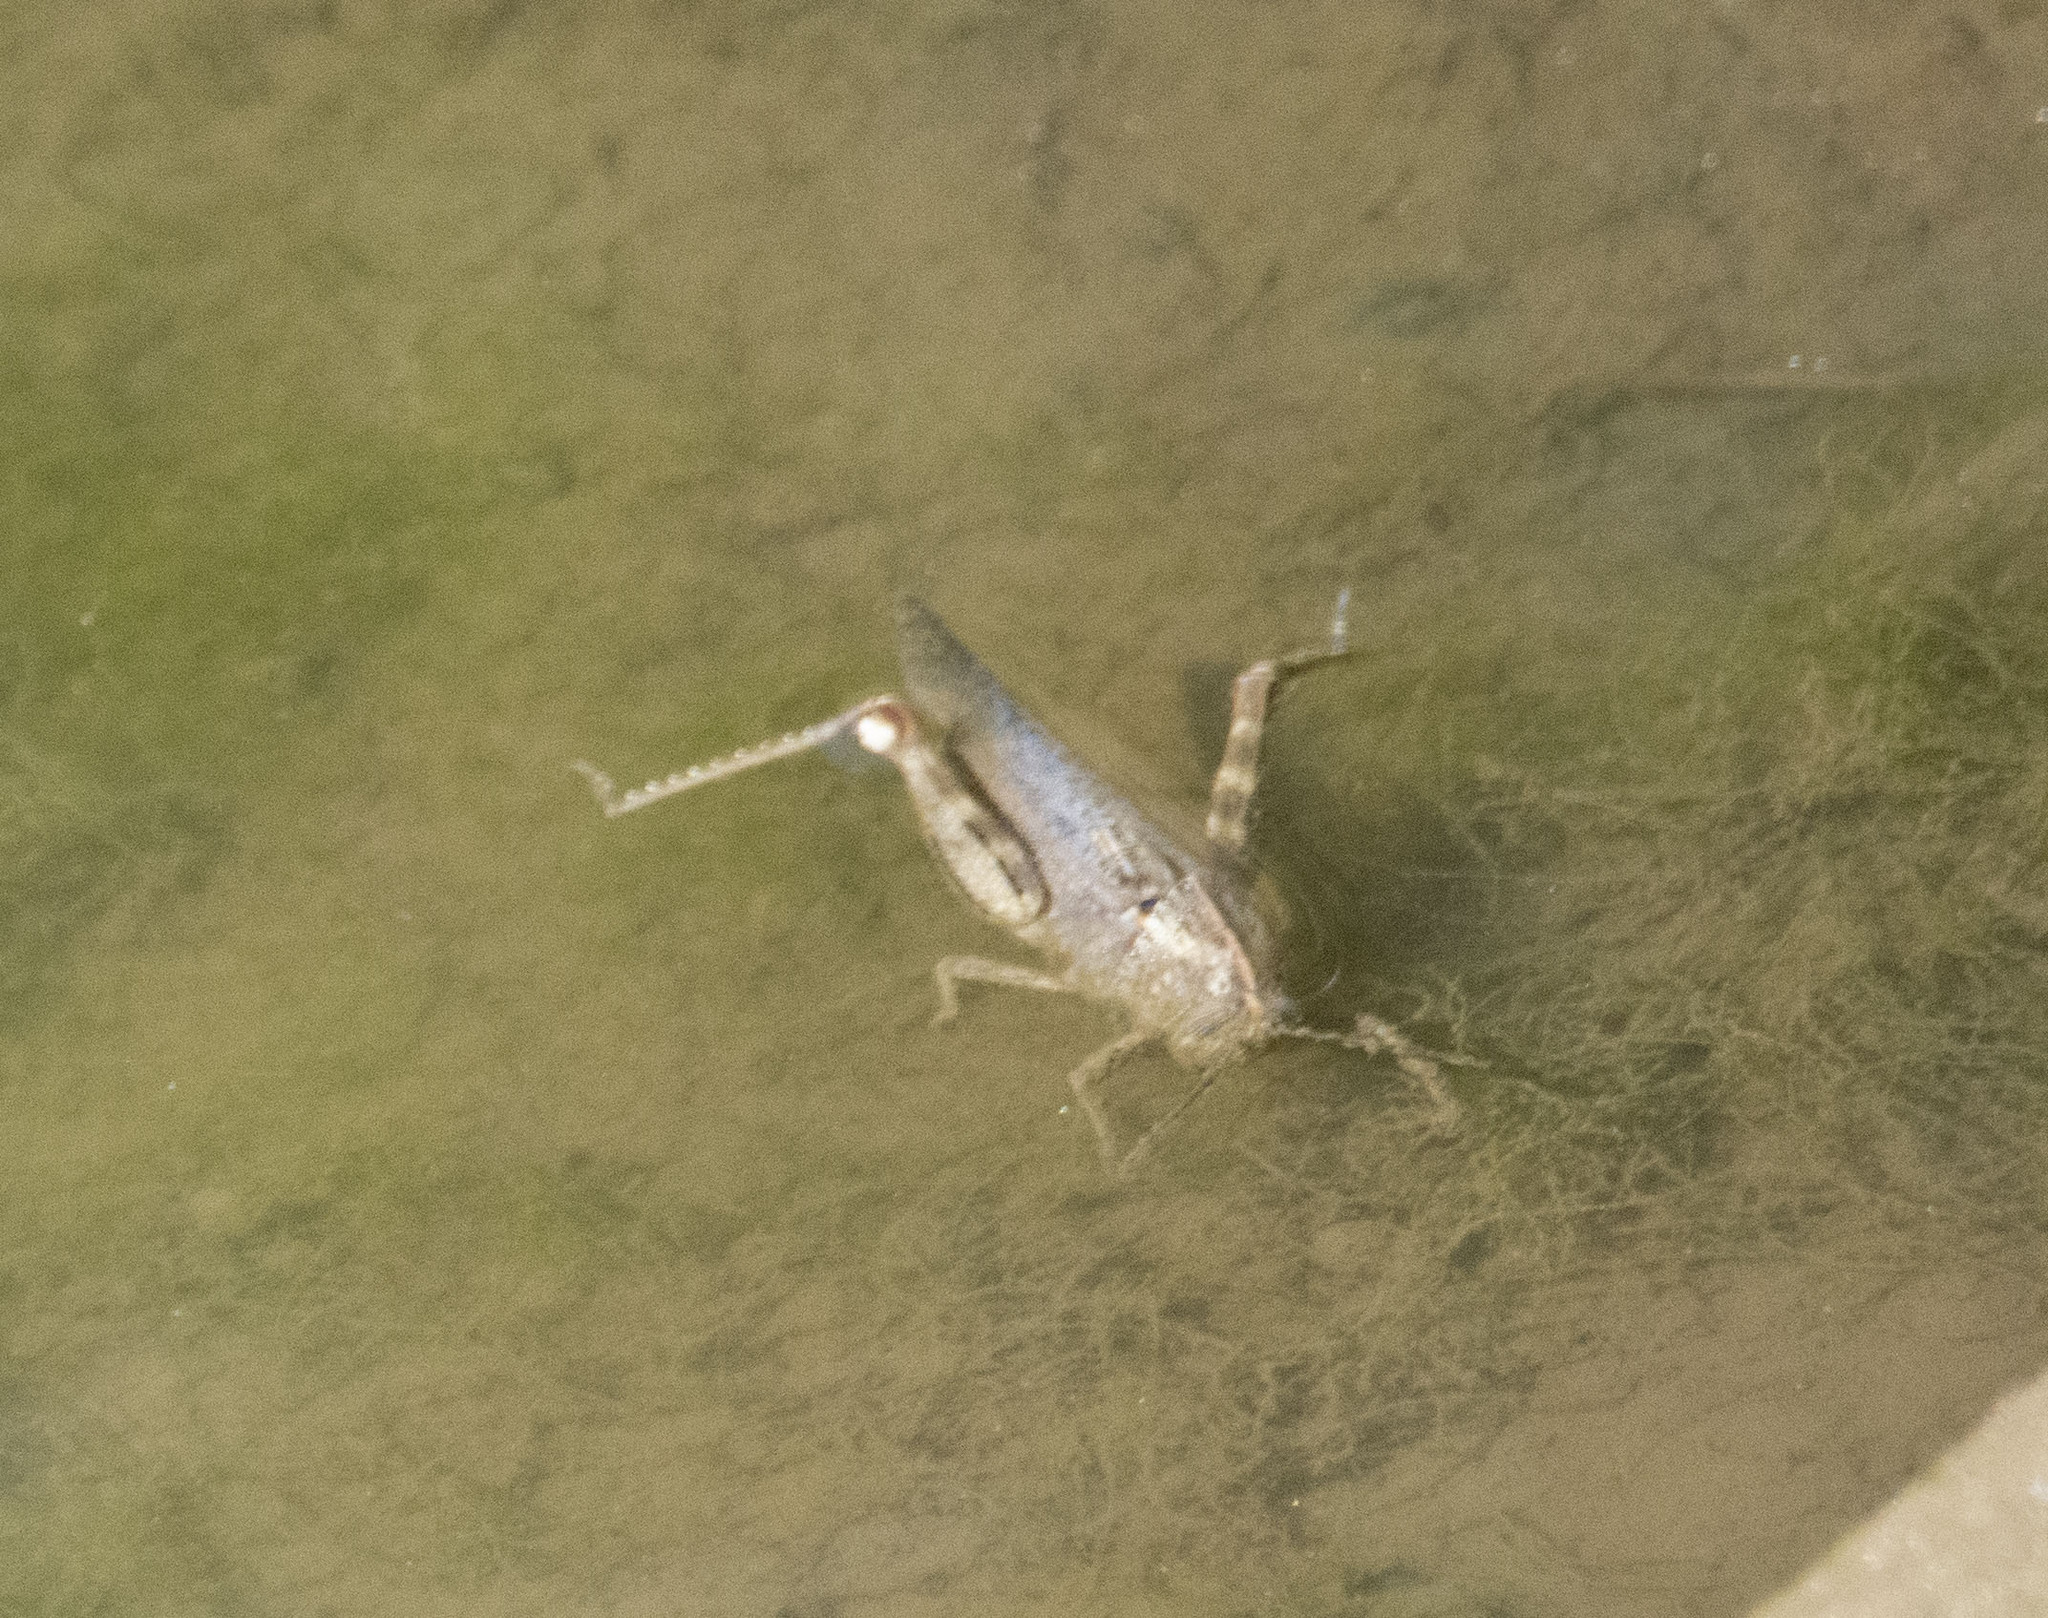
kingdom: Animalia
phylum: Arthropoda
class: Insecta
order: Orthoptera
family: Acrididae
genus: Anacridium
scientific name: Anacridium aegyptium
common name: Egyptian grasshopper
